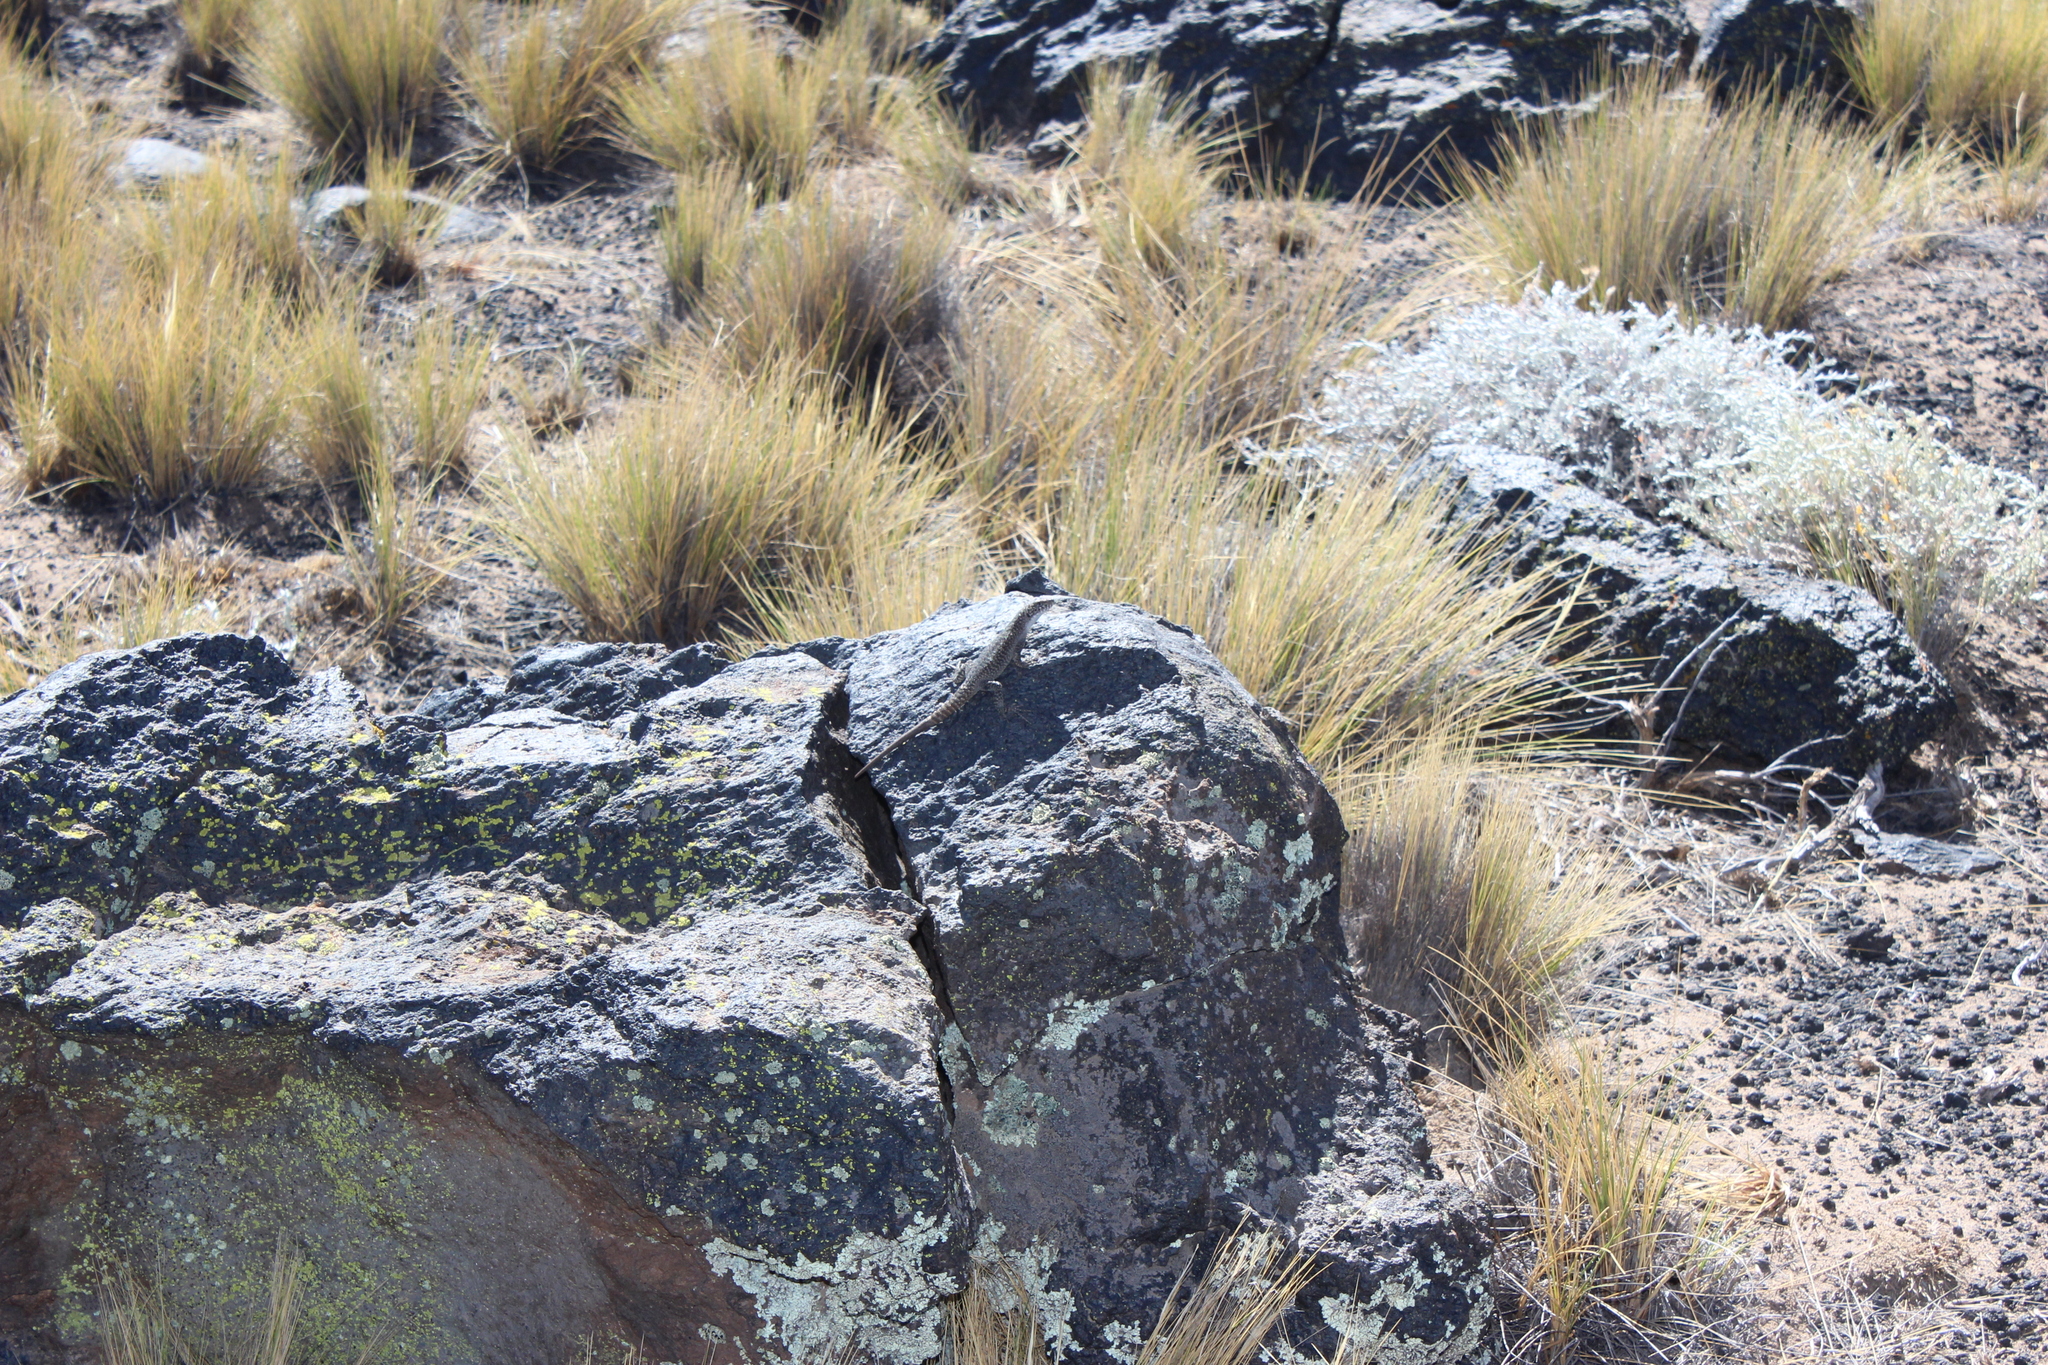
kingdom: Animalia
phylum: Chordata
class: Squamata
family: Liolaemidae
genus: Liolaemus
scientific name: Liolaemus austromendocinus
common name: Austromendocino tree iguana
